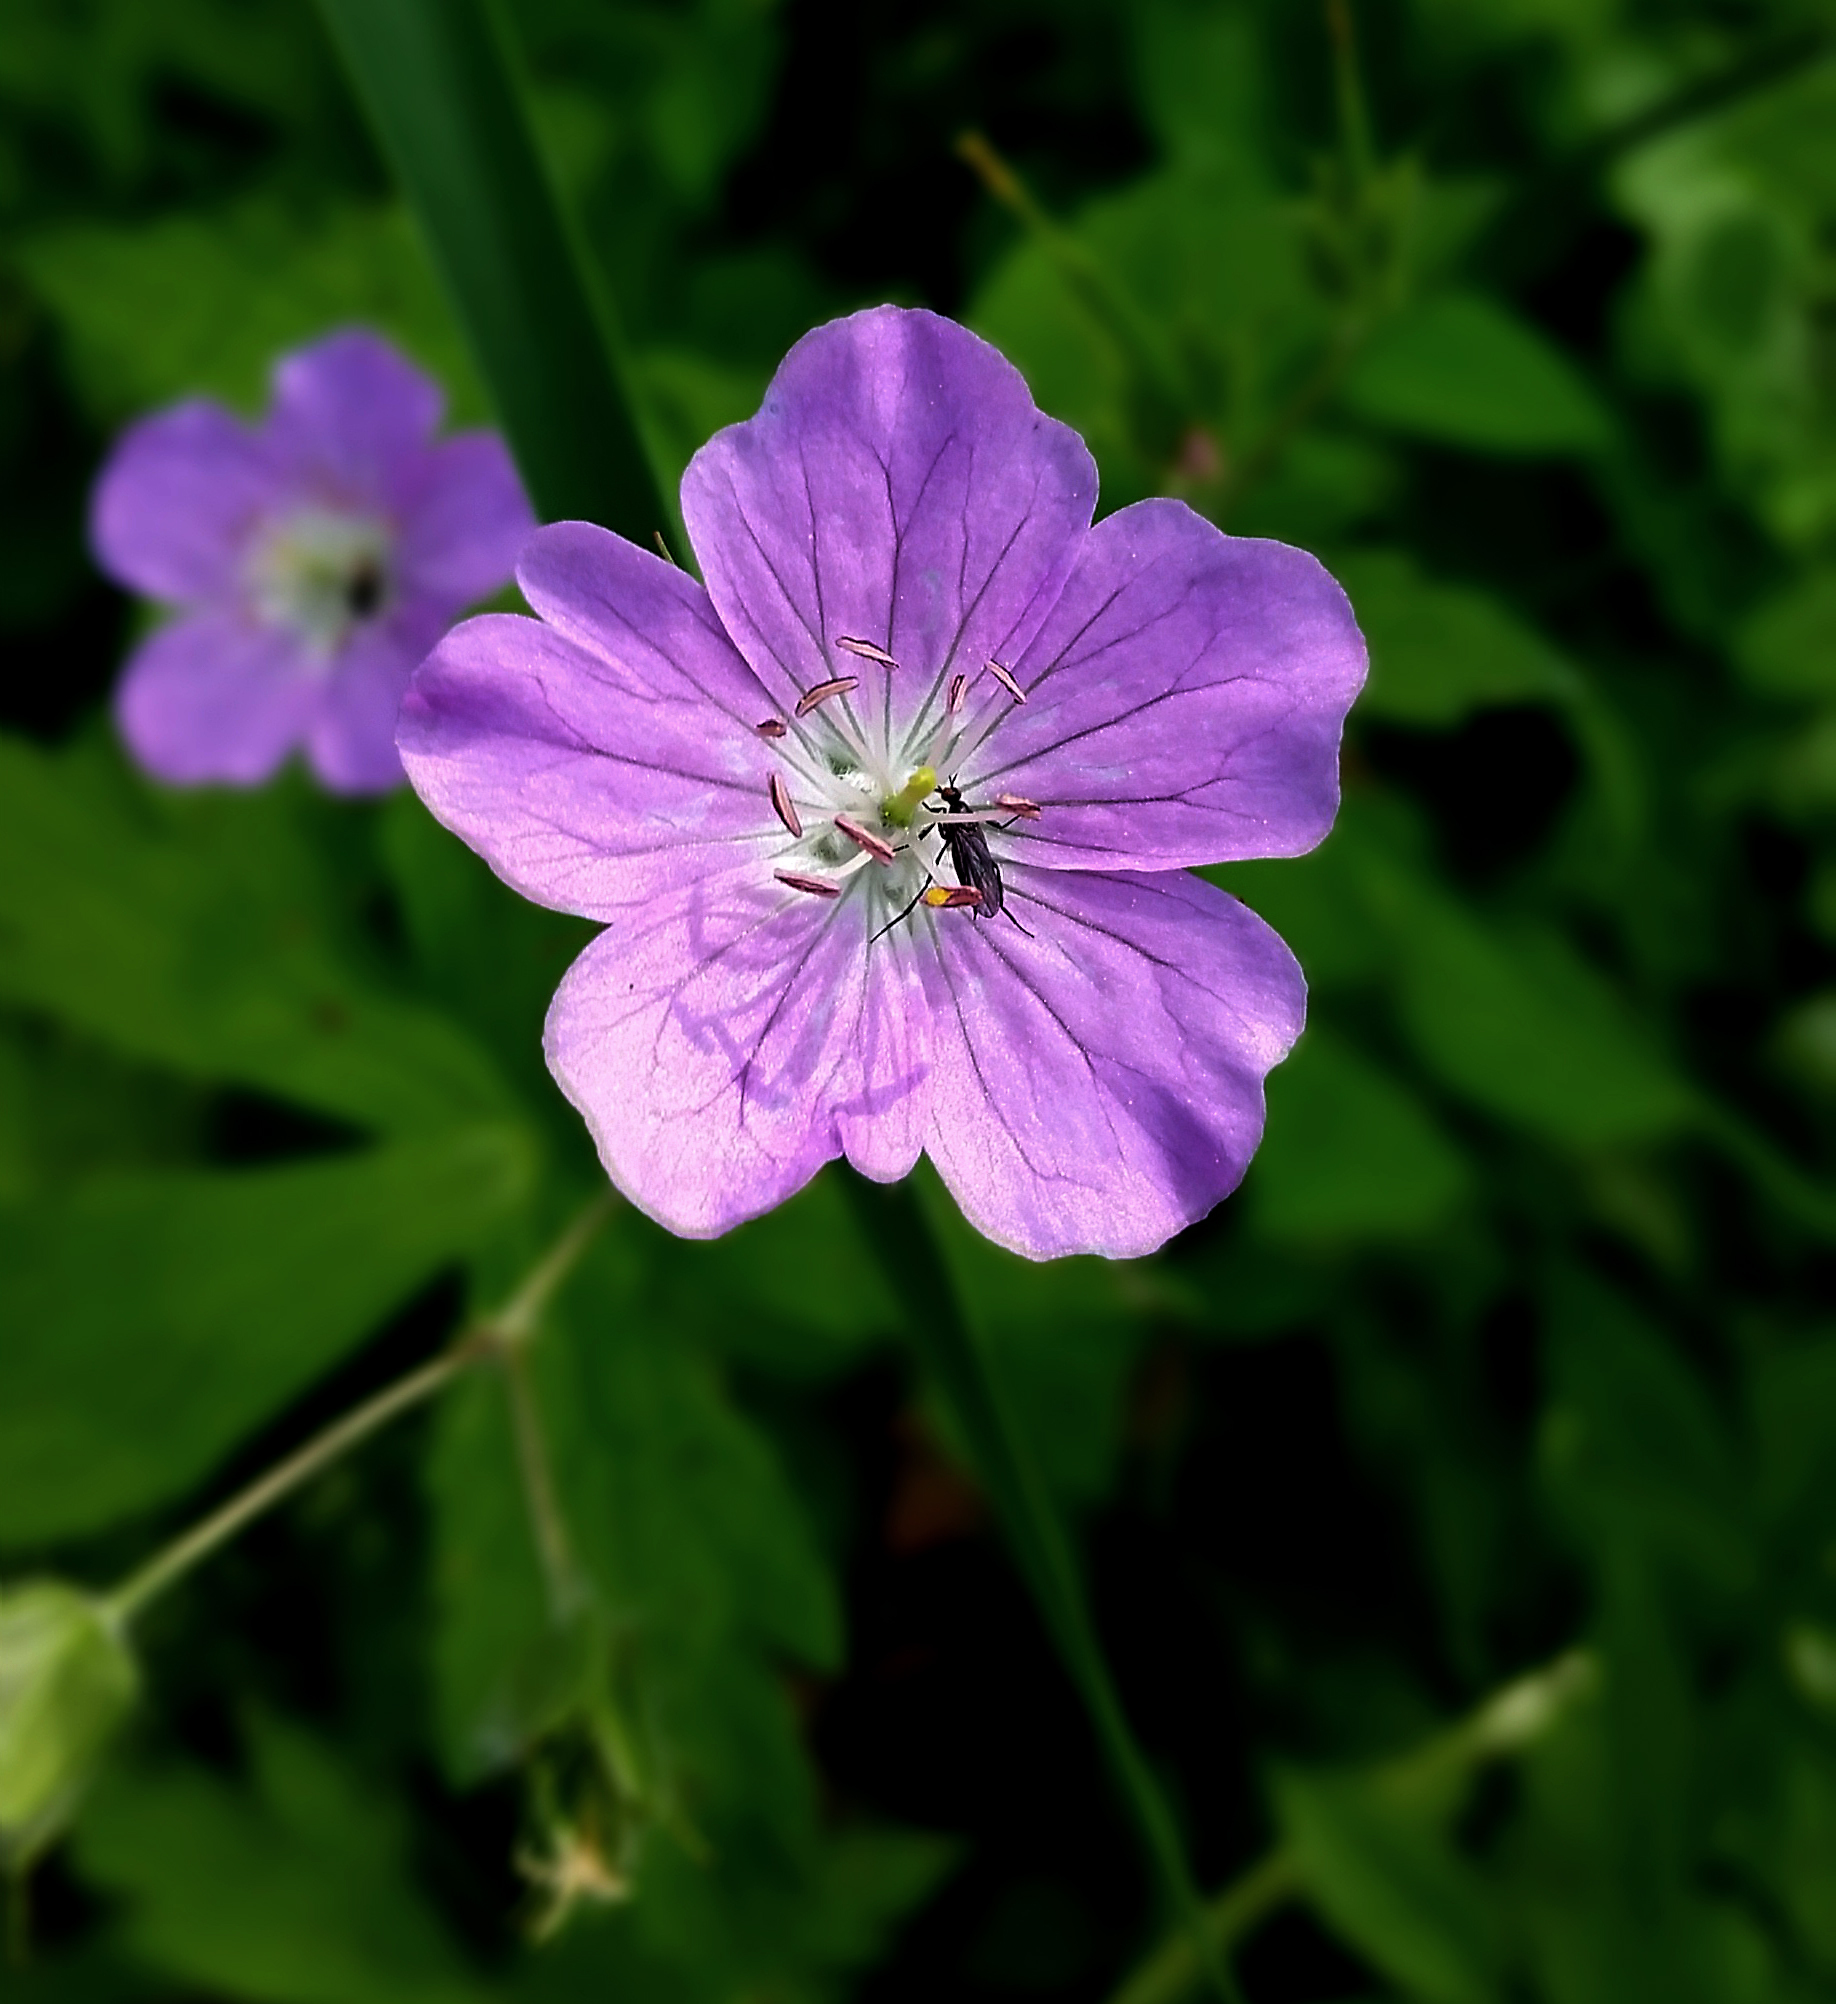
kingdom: Plantae
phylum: Tracheophyta
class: Magnoliopsida
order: Geraniales
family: Geraniaceae
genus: Geranium
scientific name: Geranium maculatum
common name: Spotted geranium
